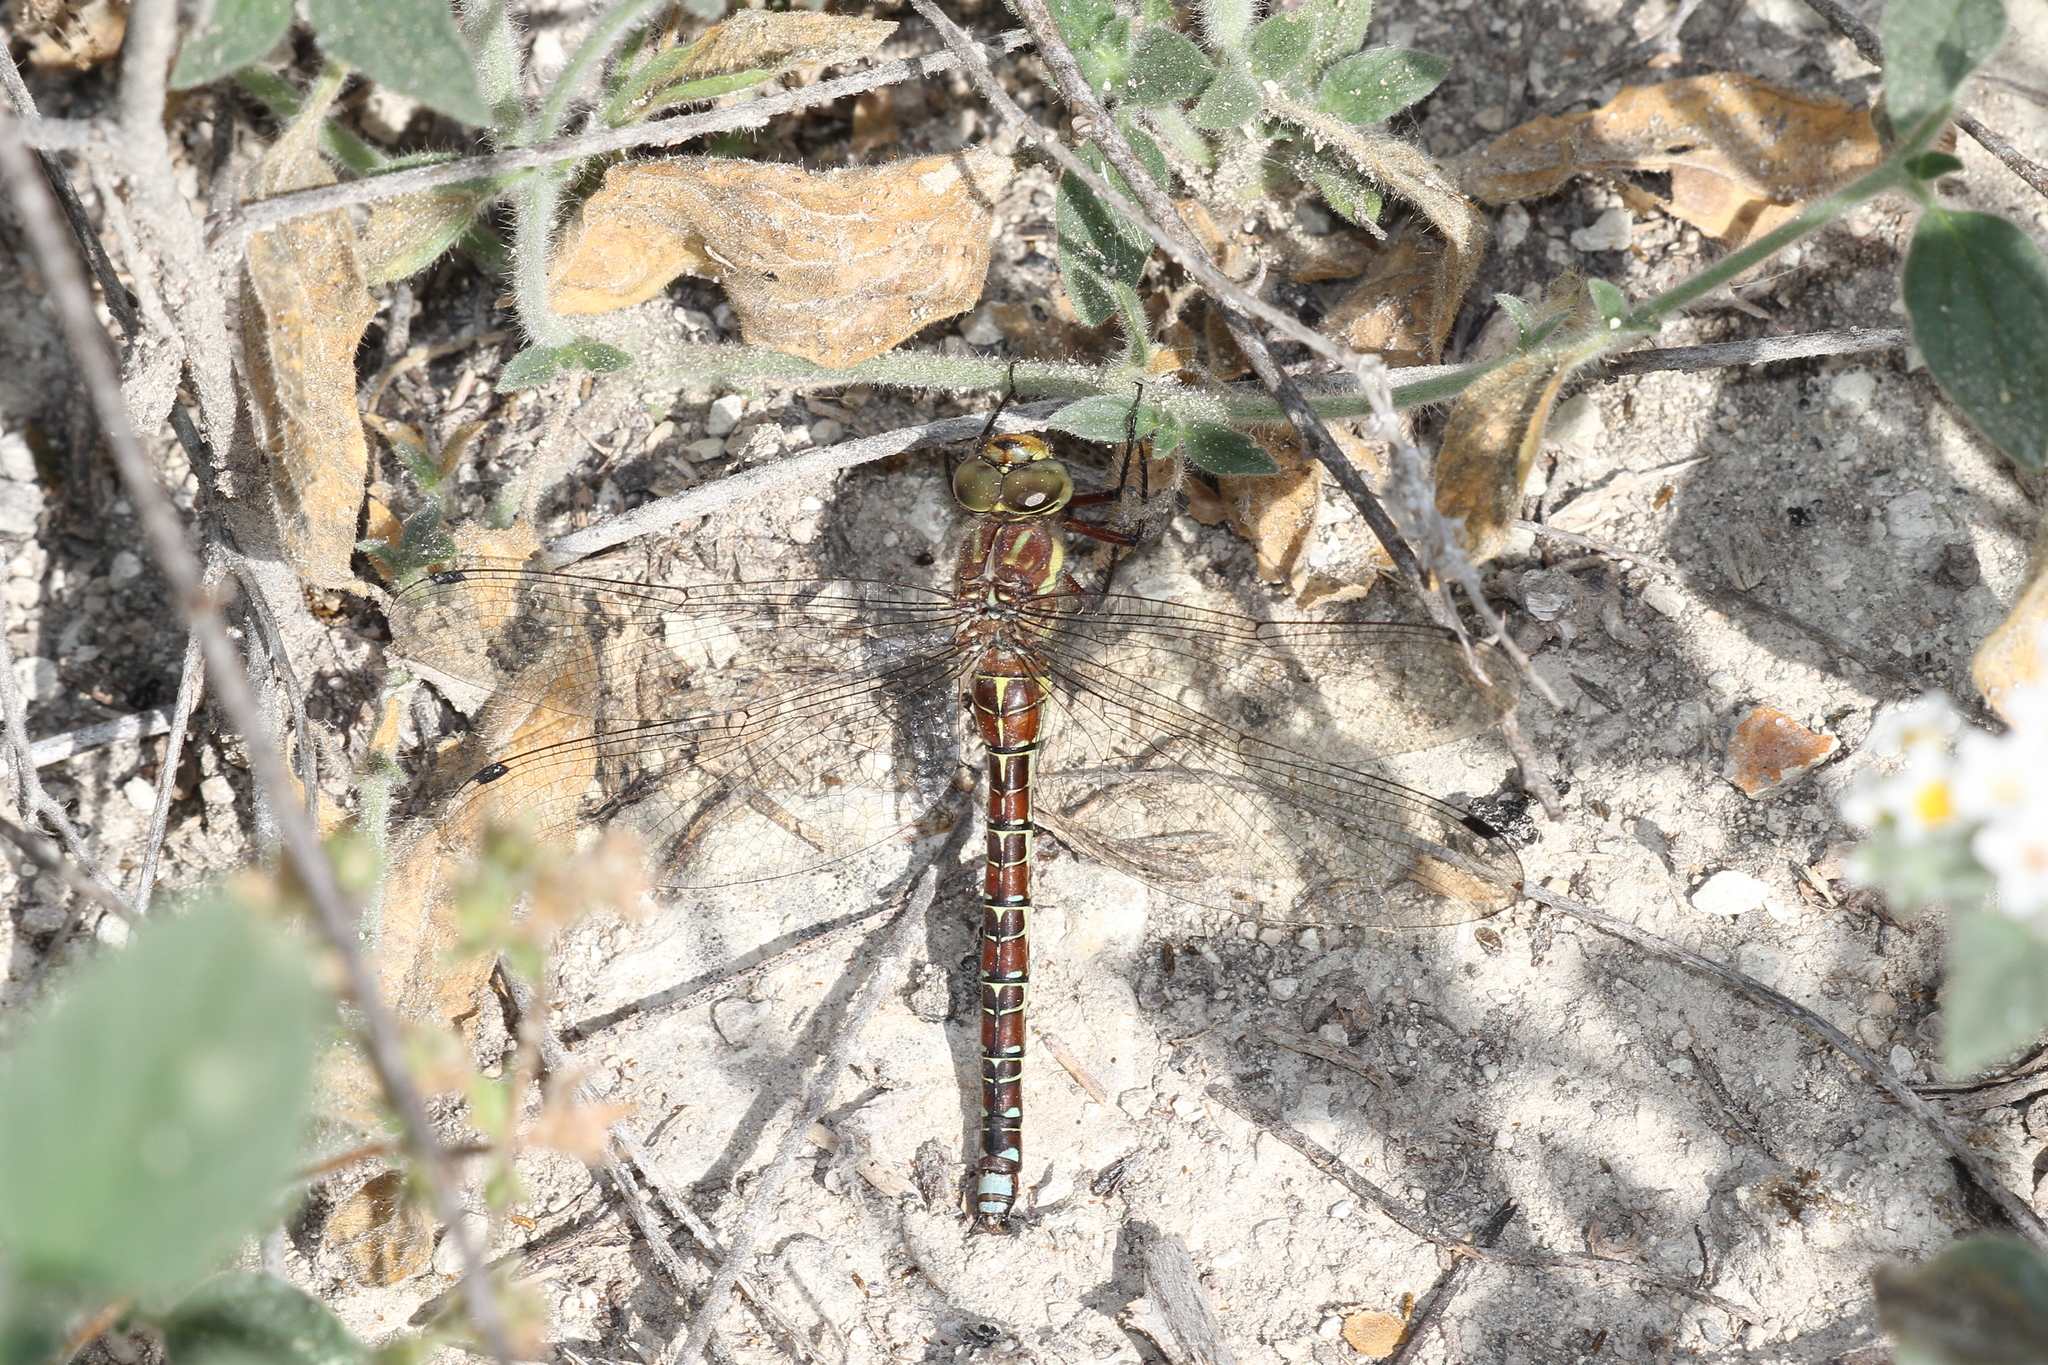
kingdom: Animalia
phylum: Arthropoda
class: Insecta
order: Odonata
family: Aeshnidae
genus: Caliaeschna
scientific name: Caliaeschna microstigma
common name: Eastern spectre
